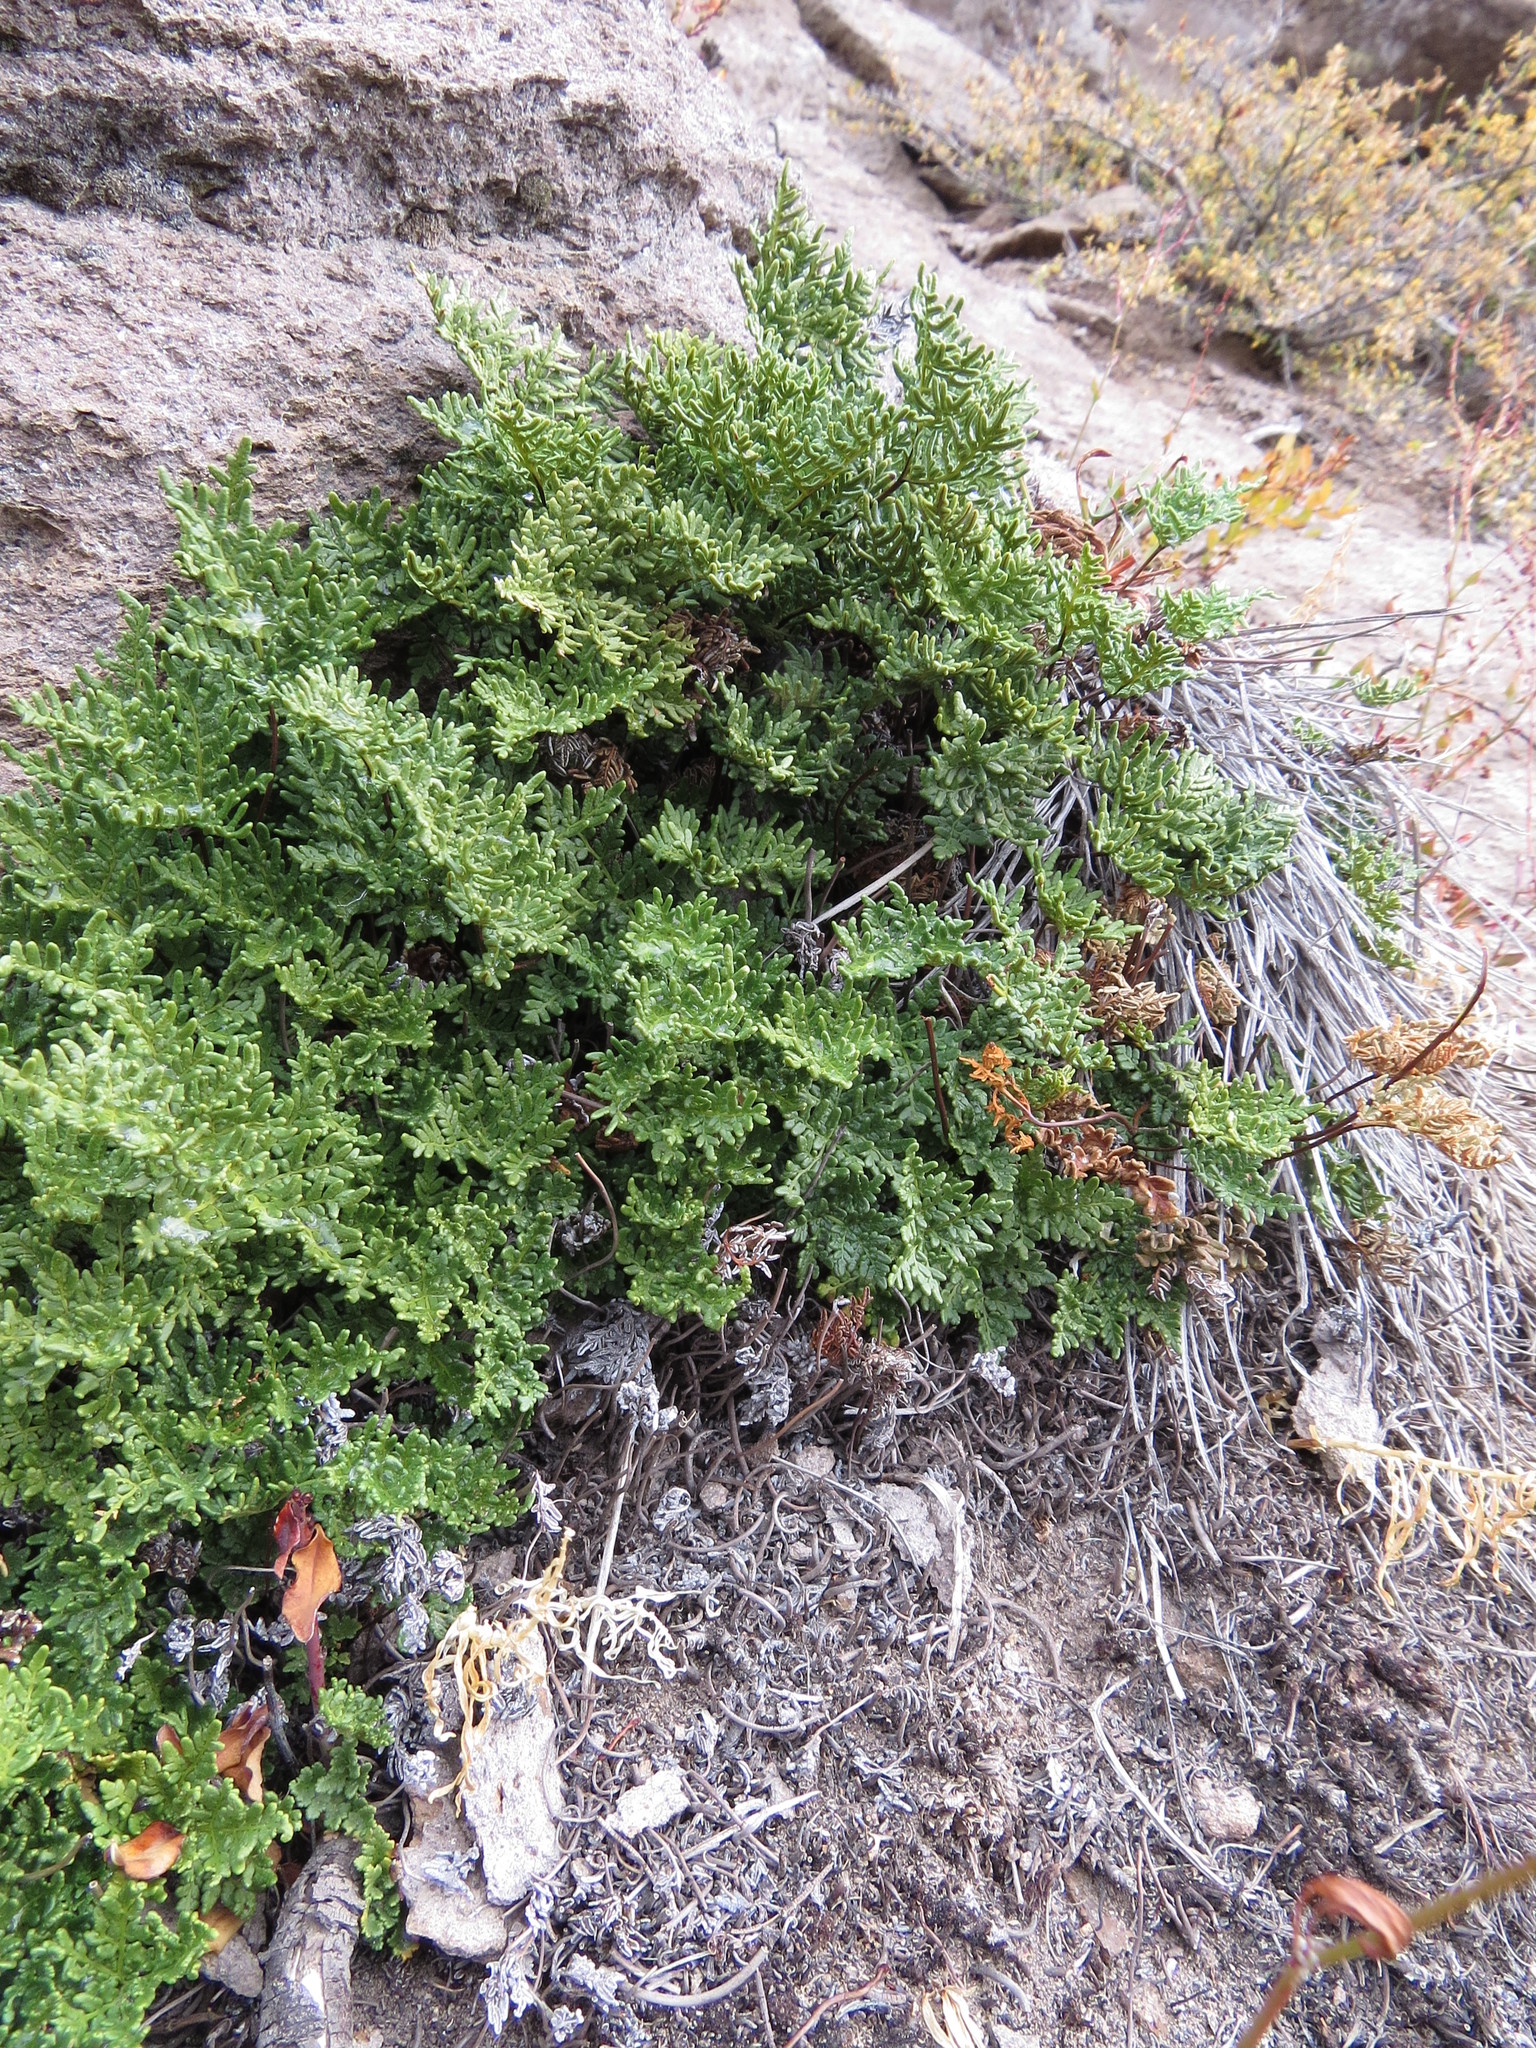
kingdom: Plantae
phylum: Tracheophyta
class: Polypodiopsida
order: Polypodiales
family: Pteridaceae
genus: Cheilanthes
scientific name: Cheilanthes glauca
